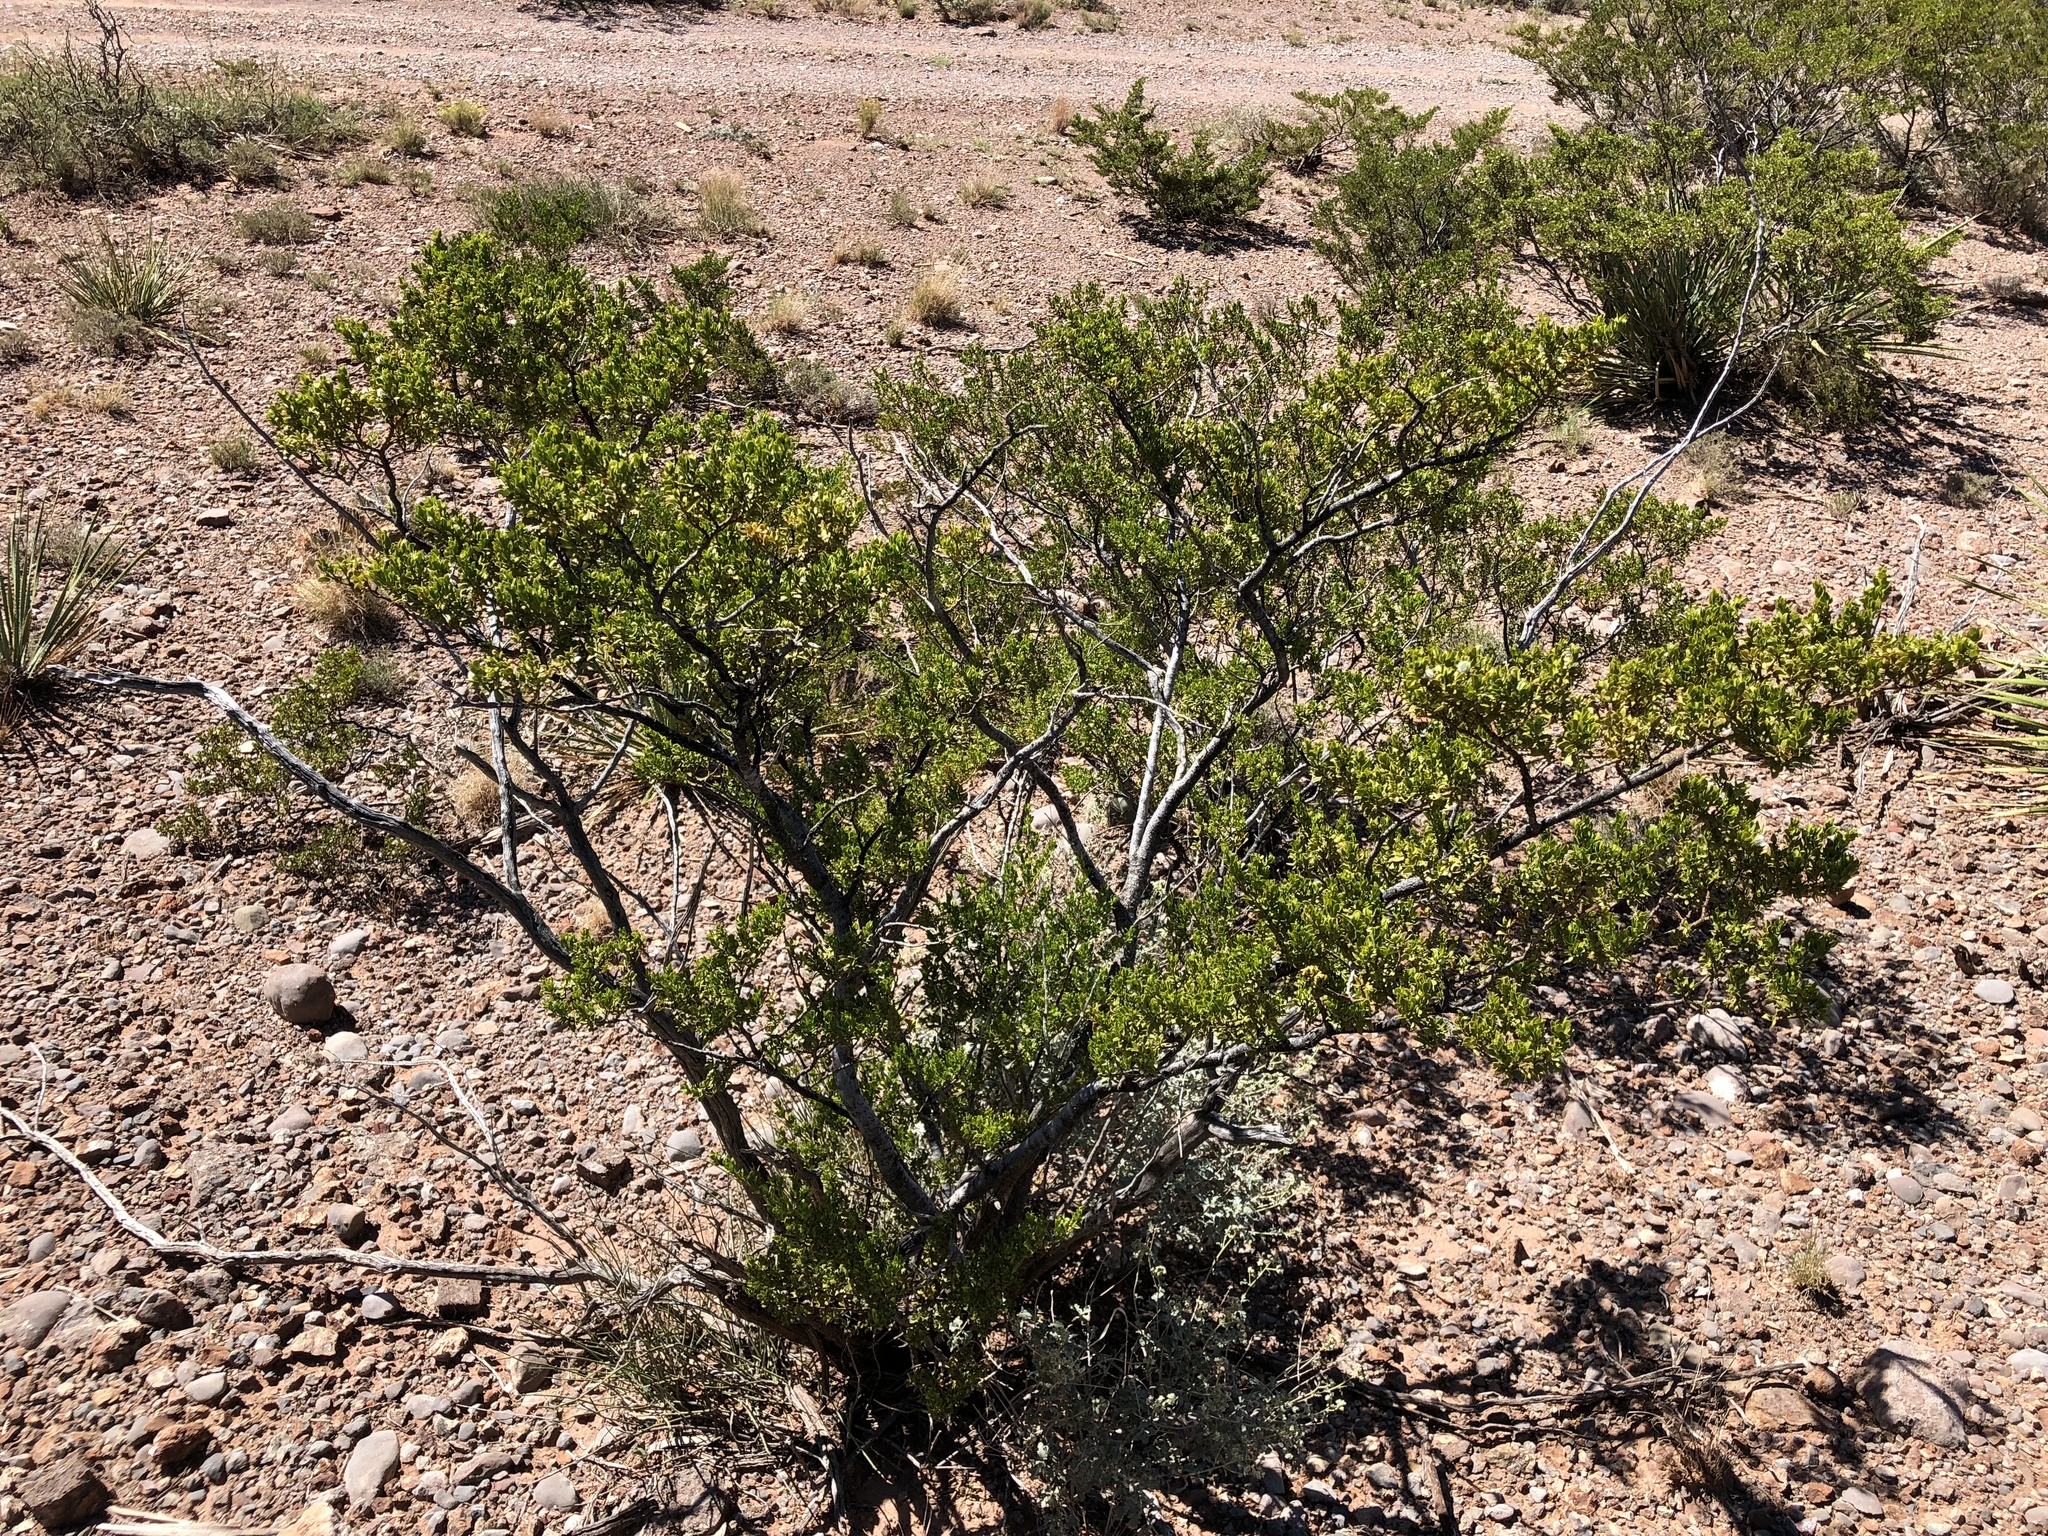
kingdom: Plantae
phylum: Tracheophyta
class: Magnoliopsida
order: Zygophyllales
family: Zygophyllaceae
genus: Larrea
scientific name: Larrea tridentata
